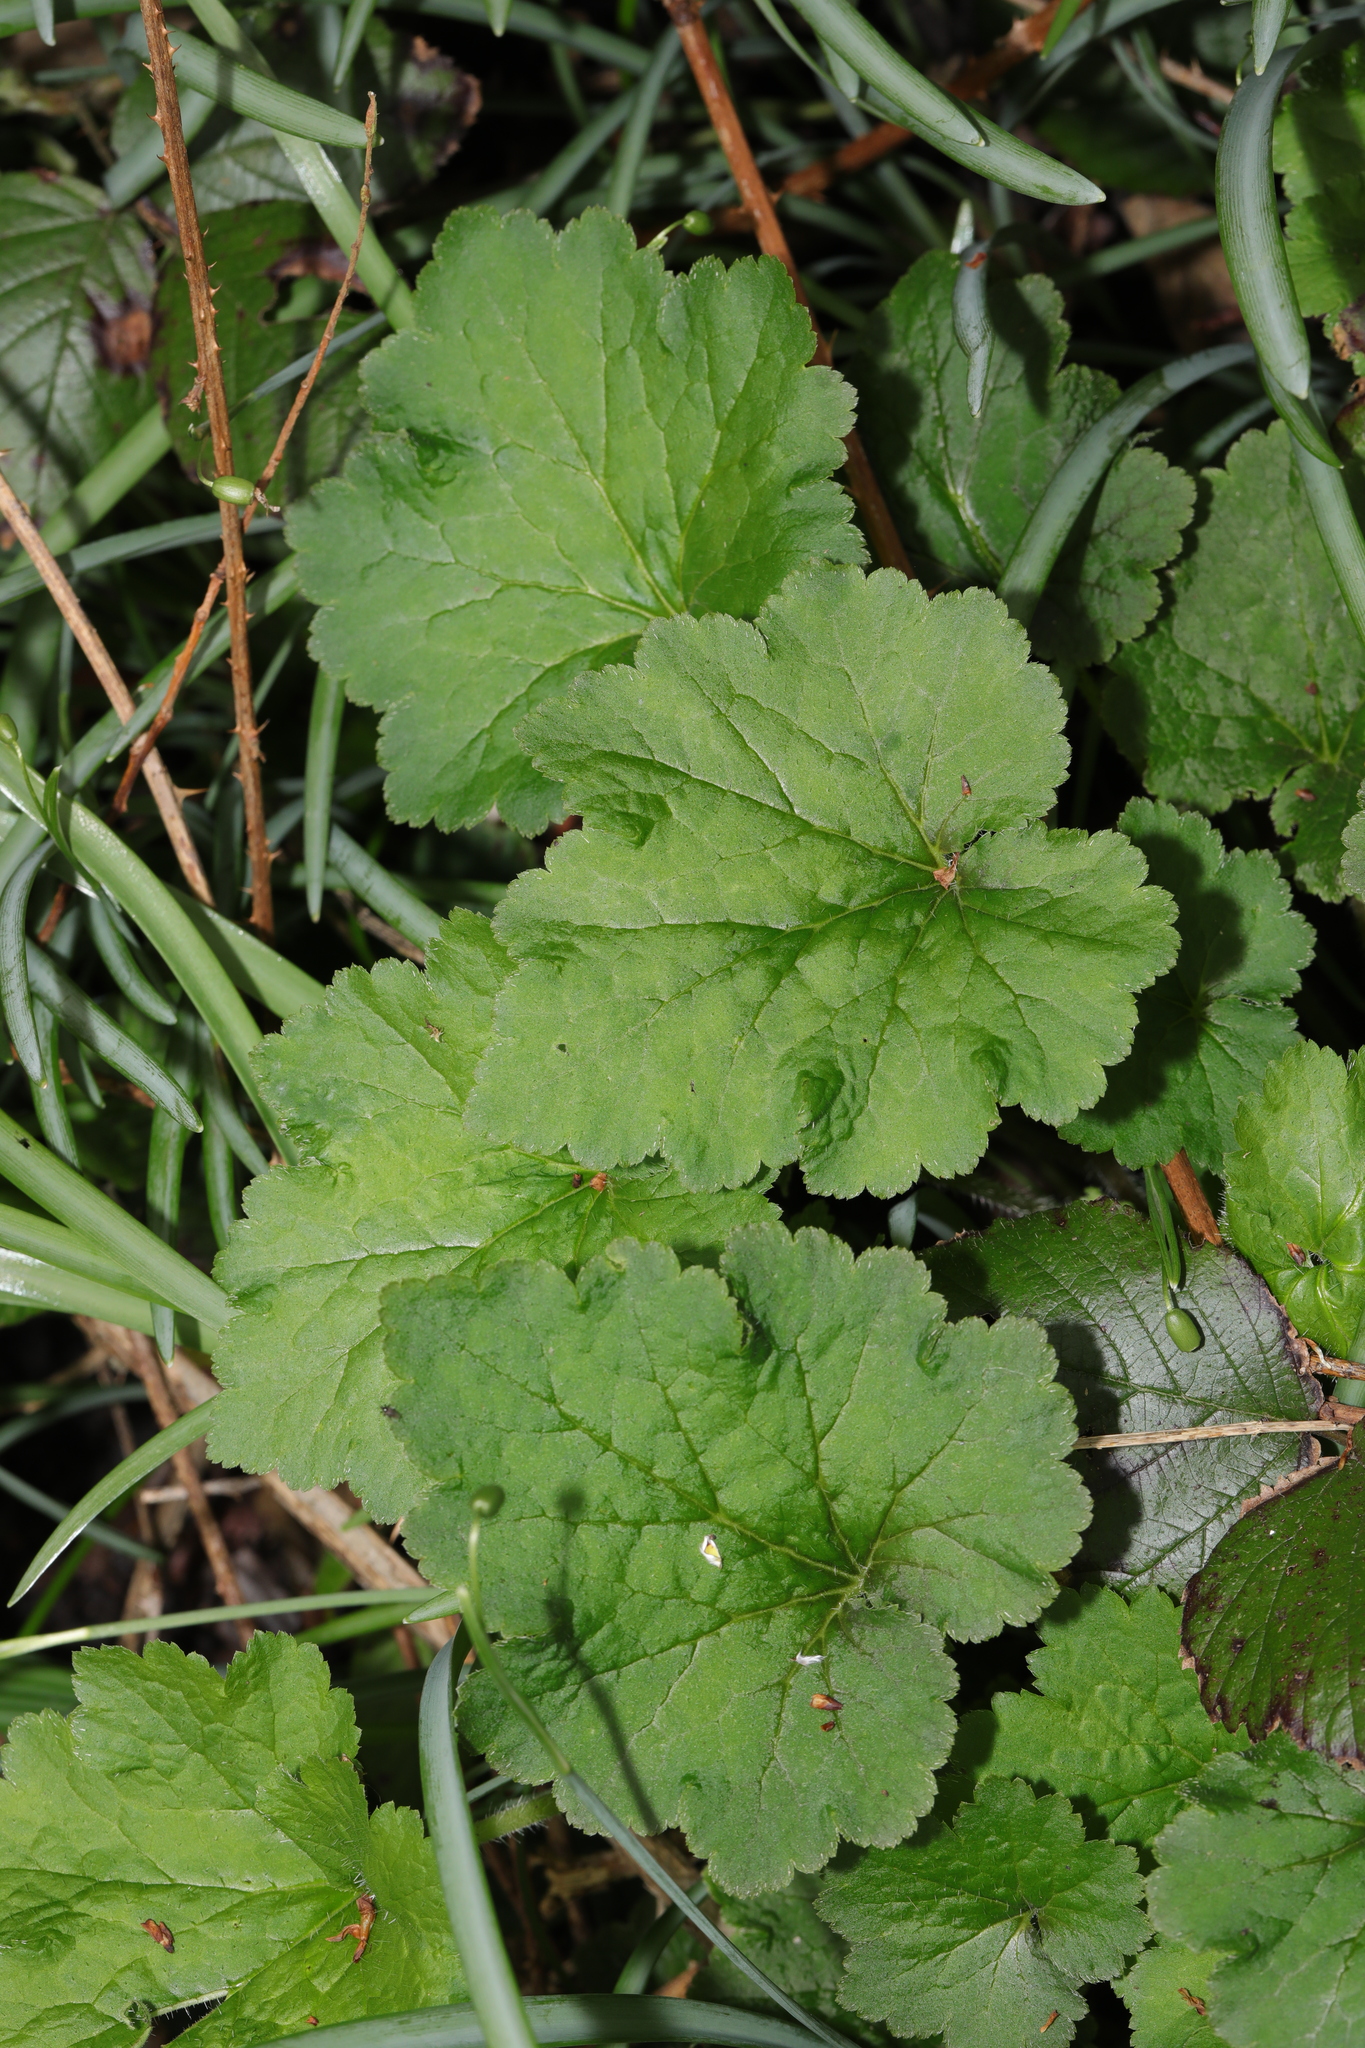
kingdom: Plantae
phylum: Tracheophyta
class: Magnoliopsida
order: Saxifragales
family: Saxifragaceae
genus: Tellima
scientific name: Tellima grandiflora
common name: Fringecups
